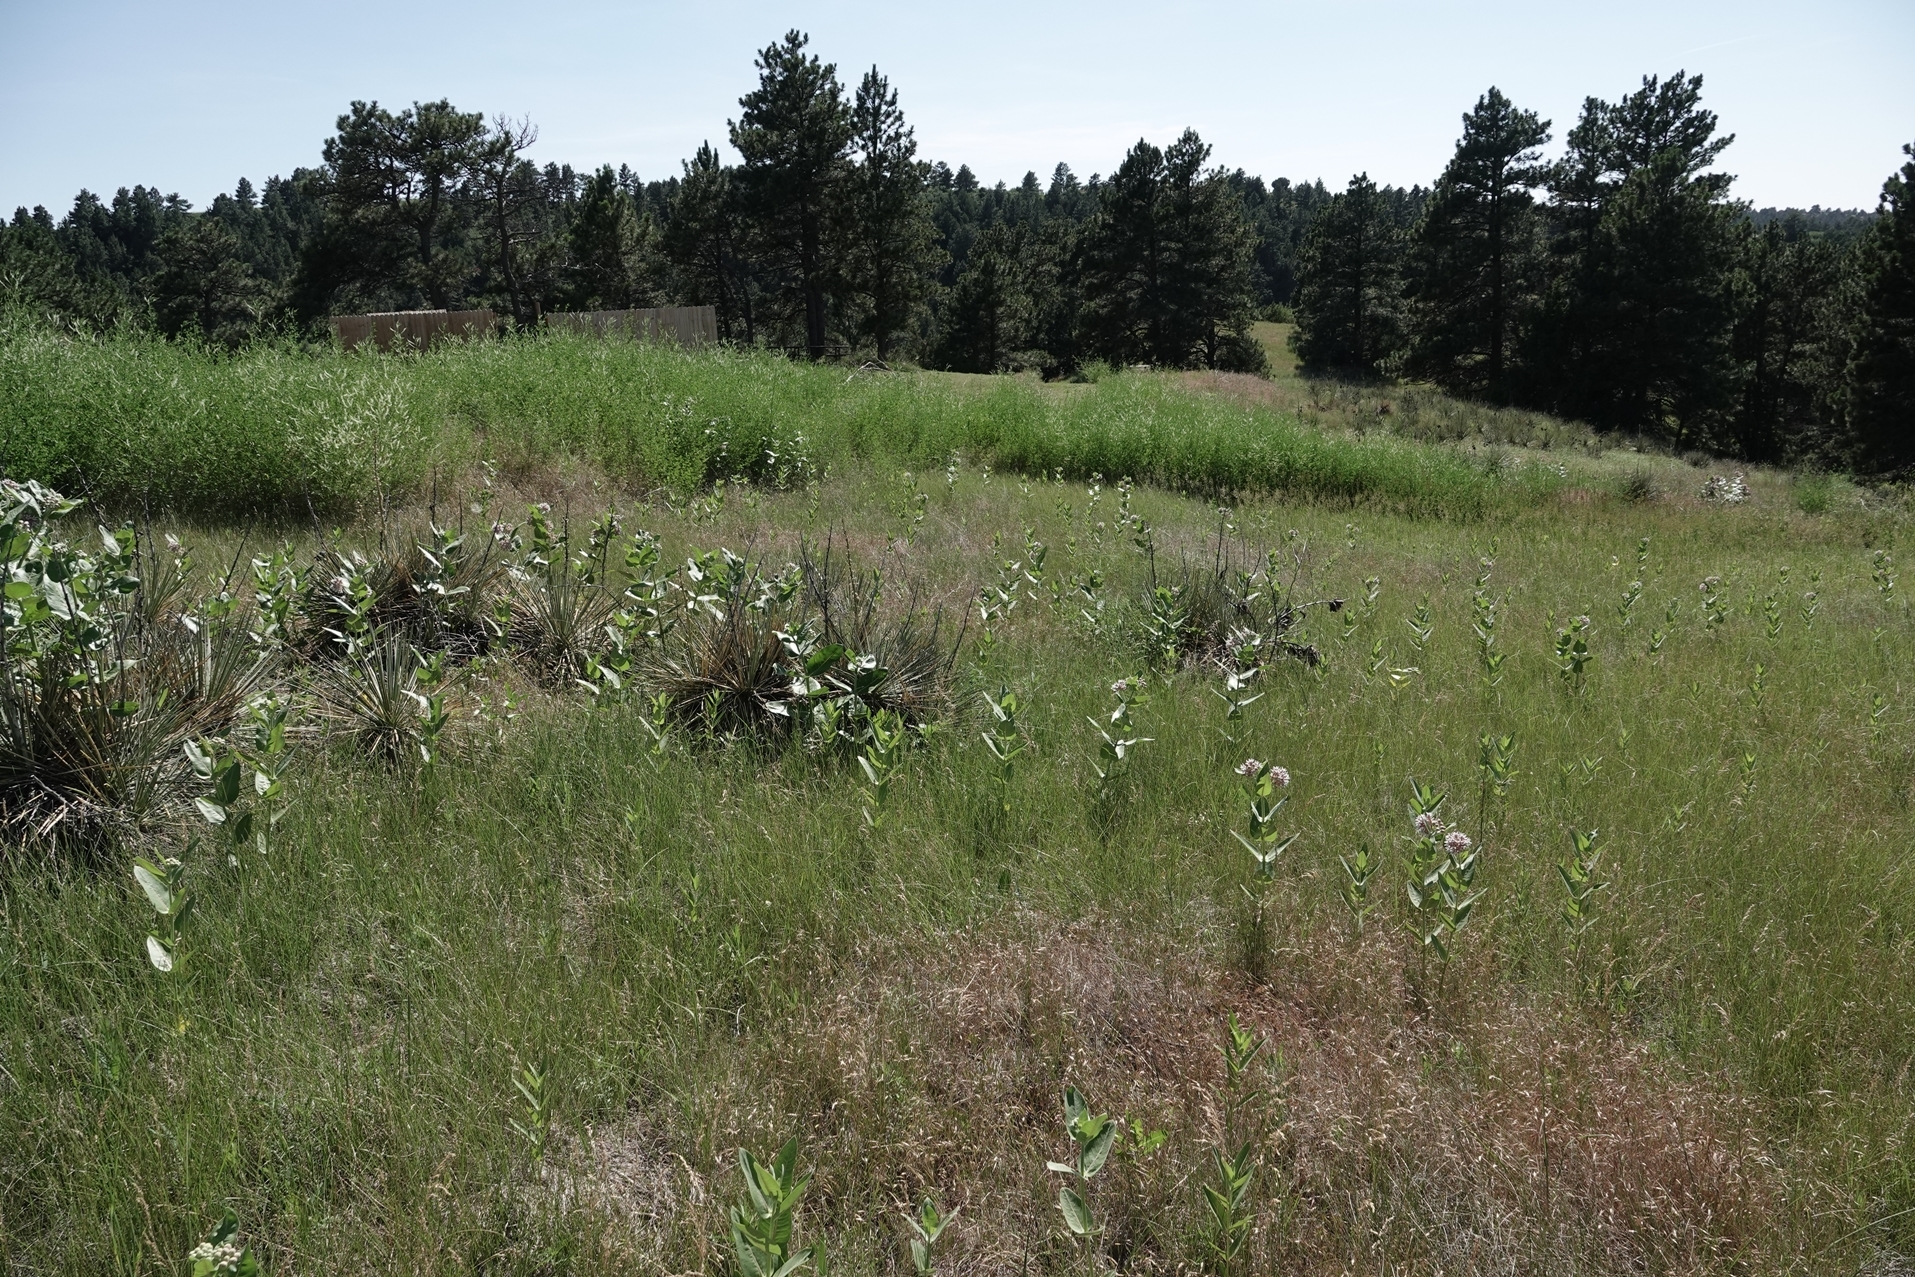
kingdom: Plantae
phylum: Tracheophyta
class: Magnoliopsida
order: Gentianales
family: Apocynaceae
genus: Asclepias
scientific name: Asclepias speciosa
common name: Showy milkweed
